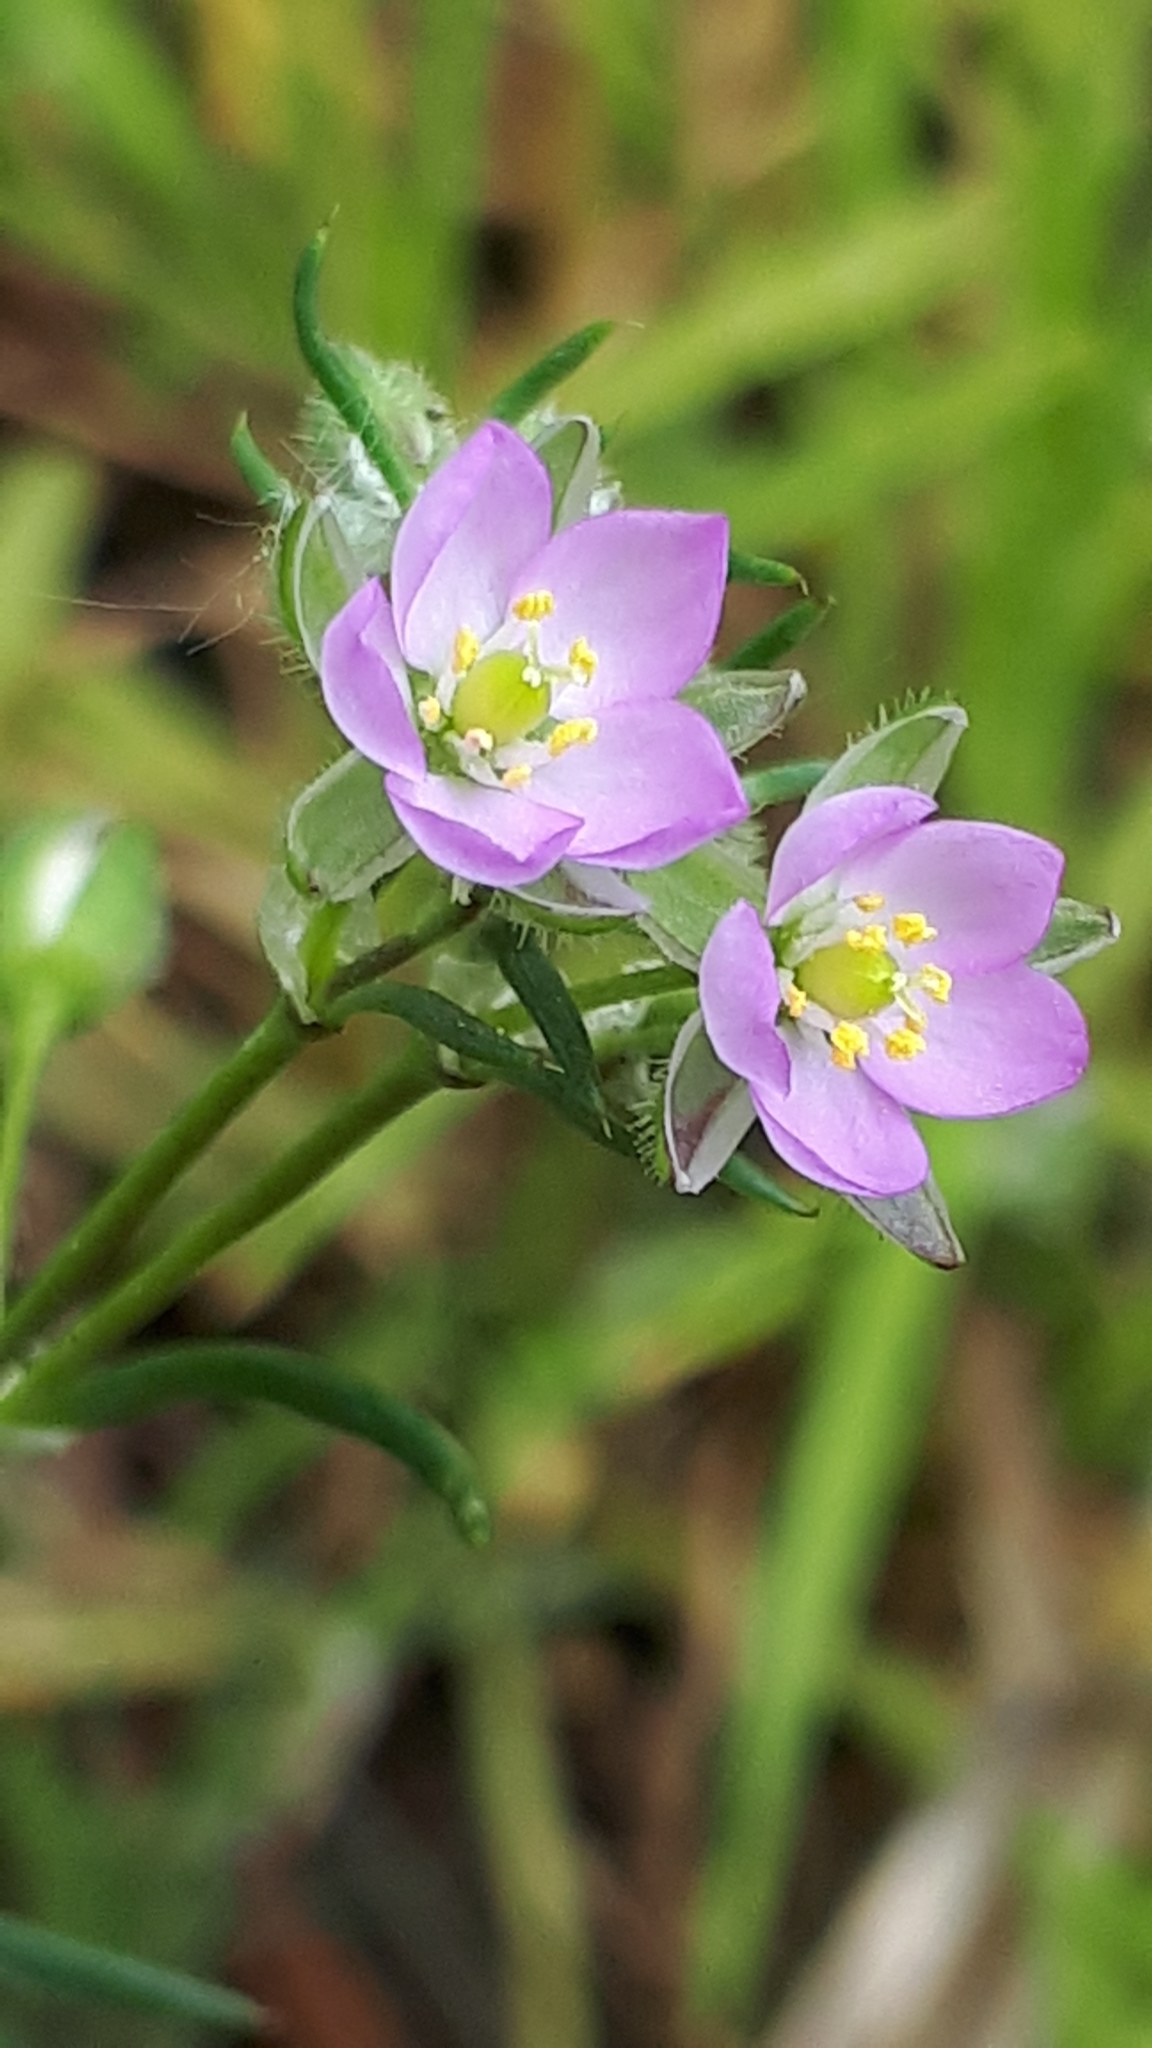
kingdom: Plantae
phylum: Tracheophyta
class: Magnoliopsida
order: Caryophyllales
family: Caryophyllaceae
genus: Spergularia
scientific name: Spergularia rubra
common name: Red sand-spurrey
